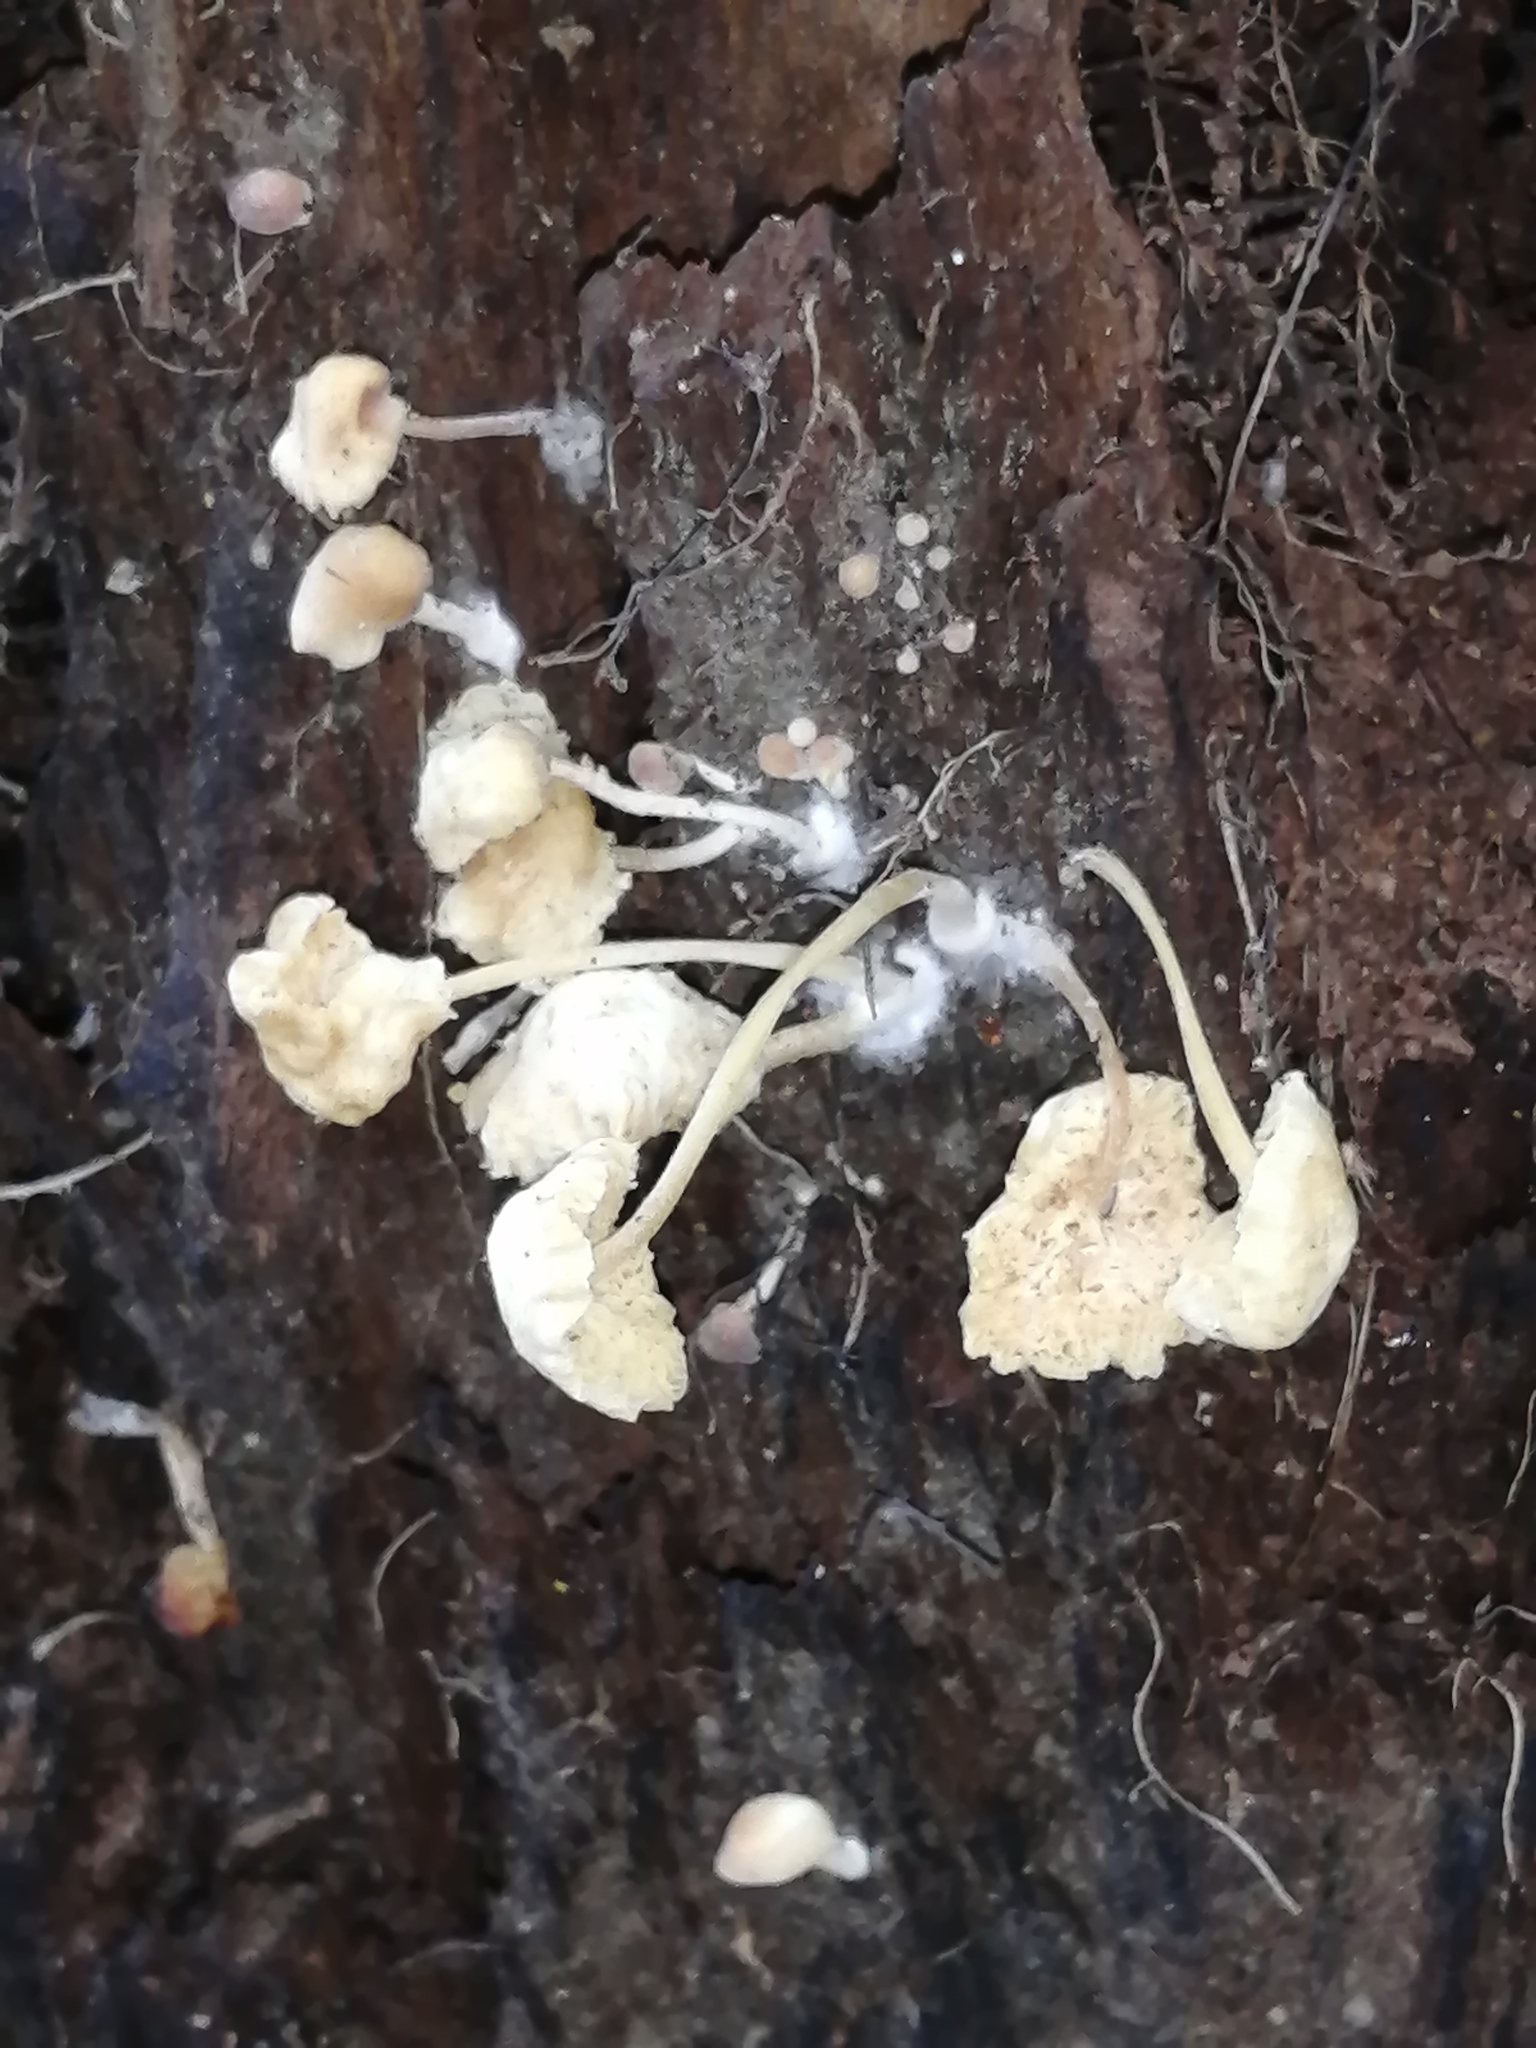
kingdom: Fungi
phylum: Basidiomycota
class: Agaricomycetes
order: Agaricales
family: Psathyrellaceae
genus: Coprinellus
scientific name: Coprinellus disseminatus
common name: Fairies' bonnets
